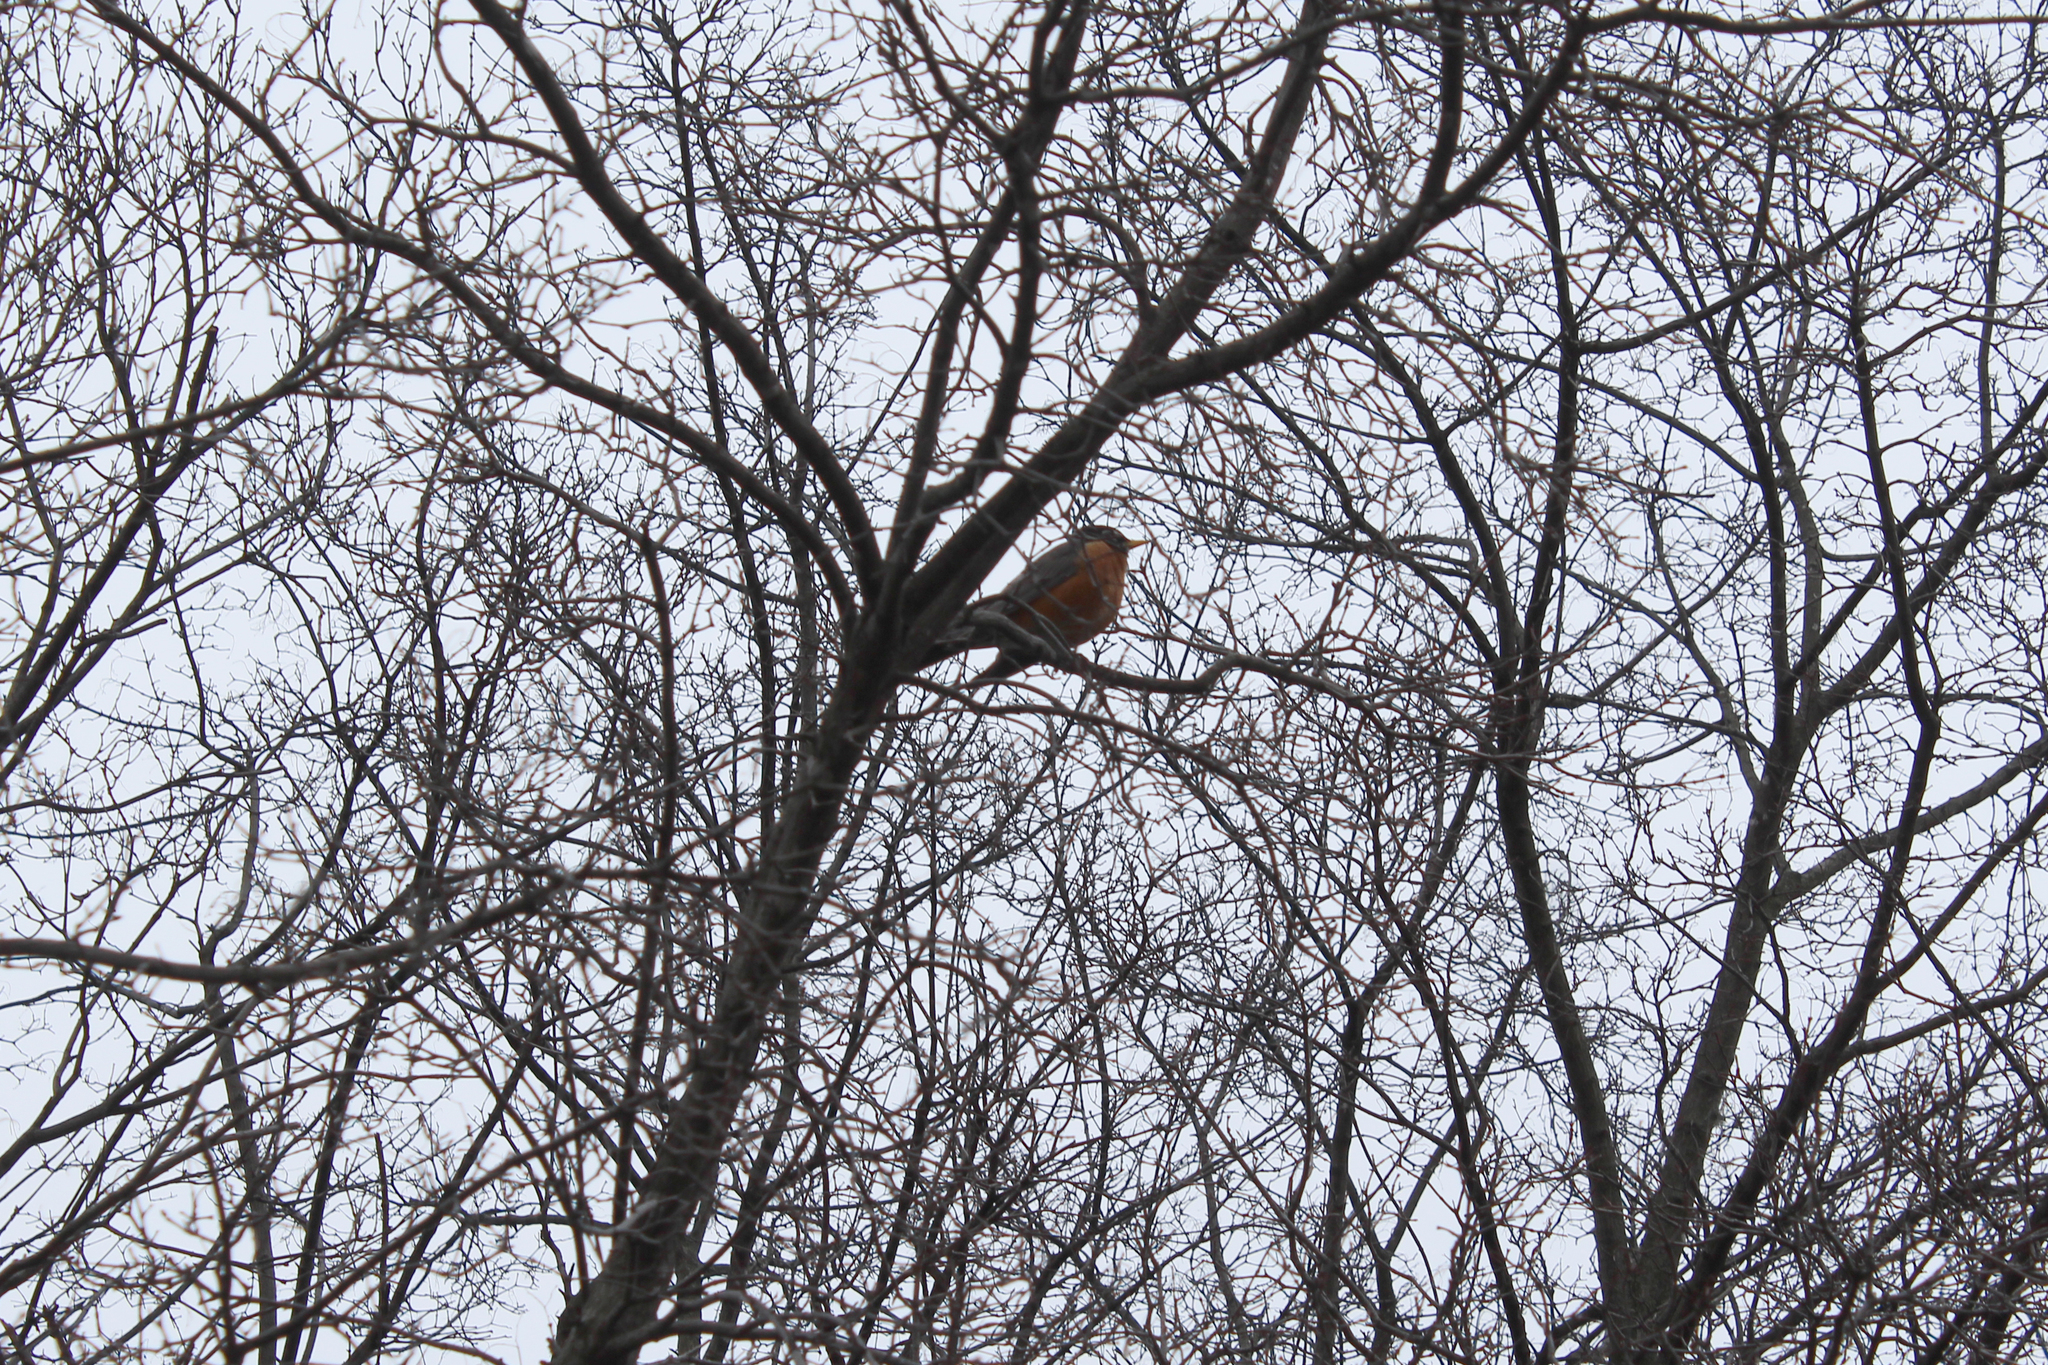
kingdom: Animalia
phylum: Chordata
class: Aves
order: Passeriformes
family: Turdidae
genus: Turdus
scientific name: Turdus migratorius
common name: American robin
